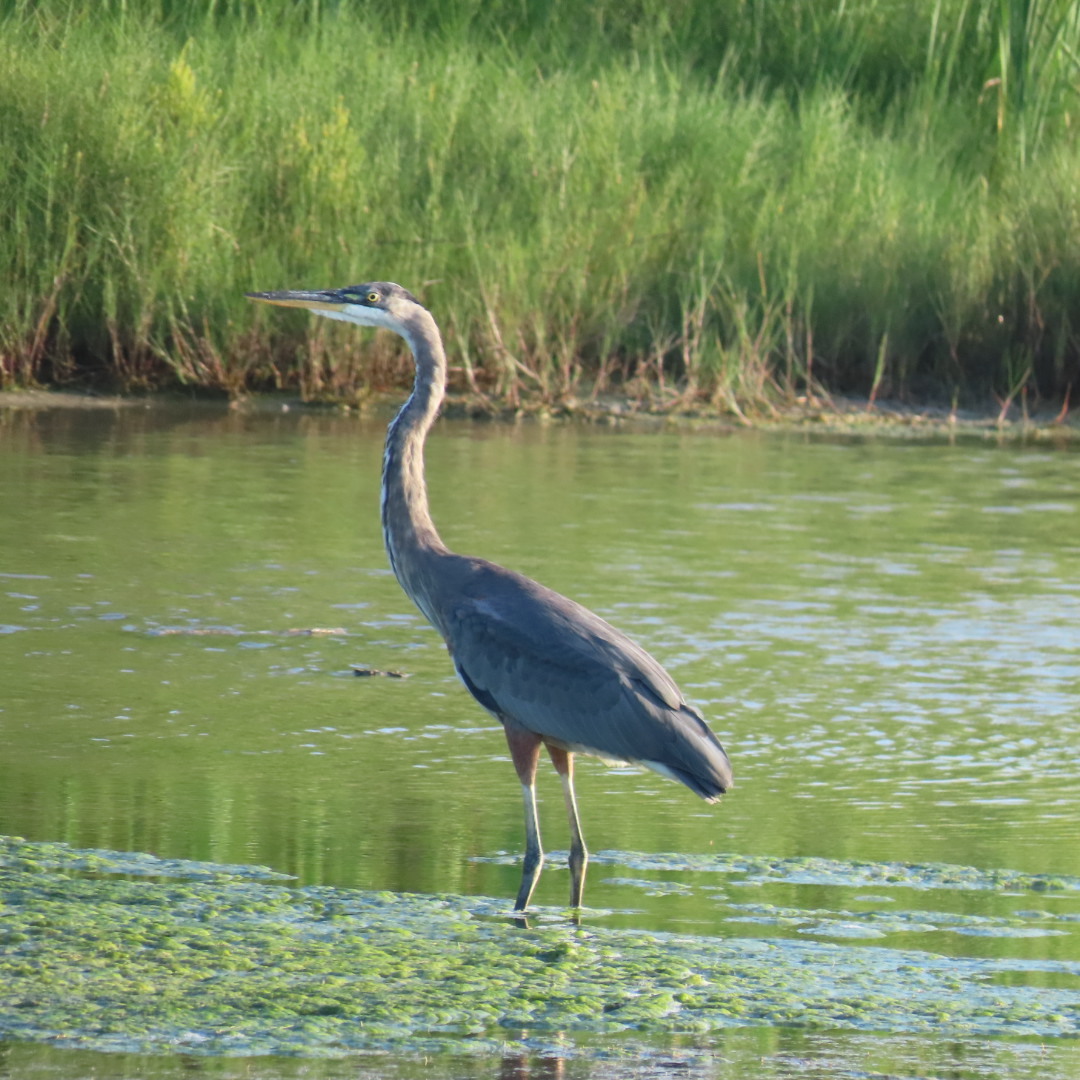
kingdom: Animalia
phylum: Chordata
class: Aves
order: Pelecaniformes
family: Ardeidae
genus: Ardea
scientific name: Ardea herodias
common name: Great blue heron
